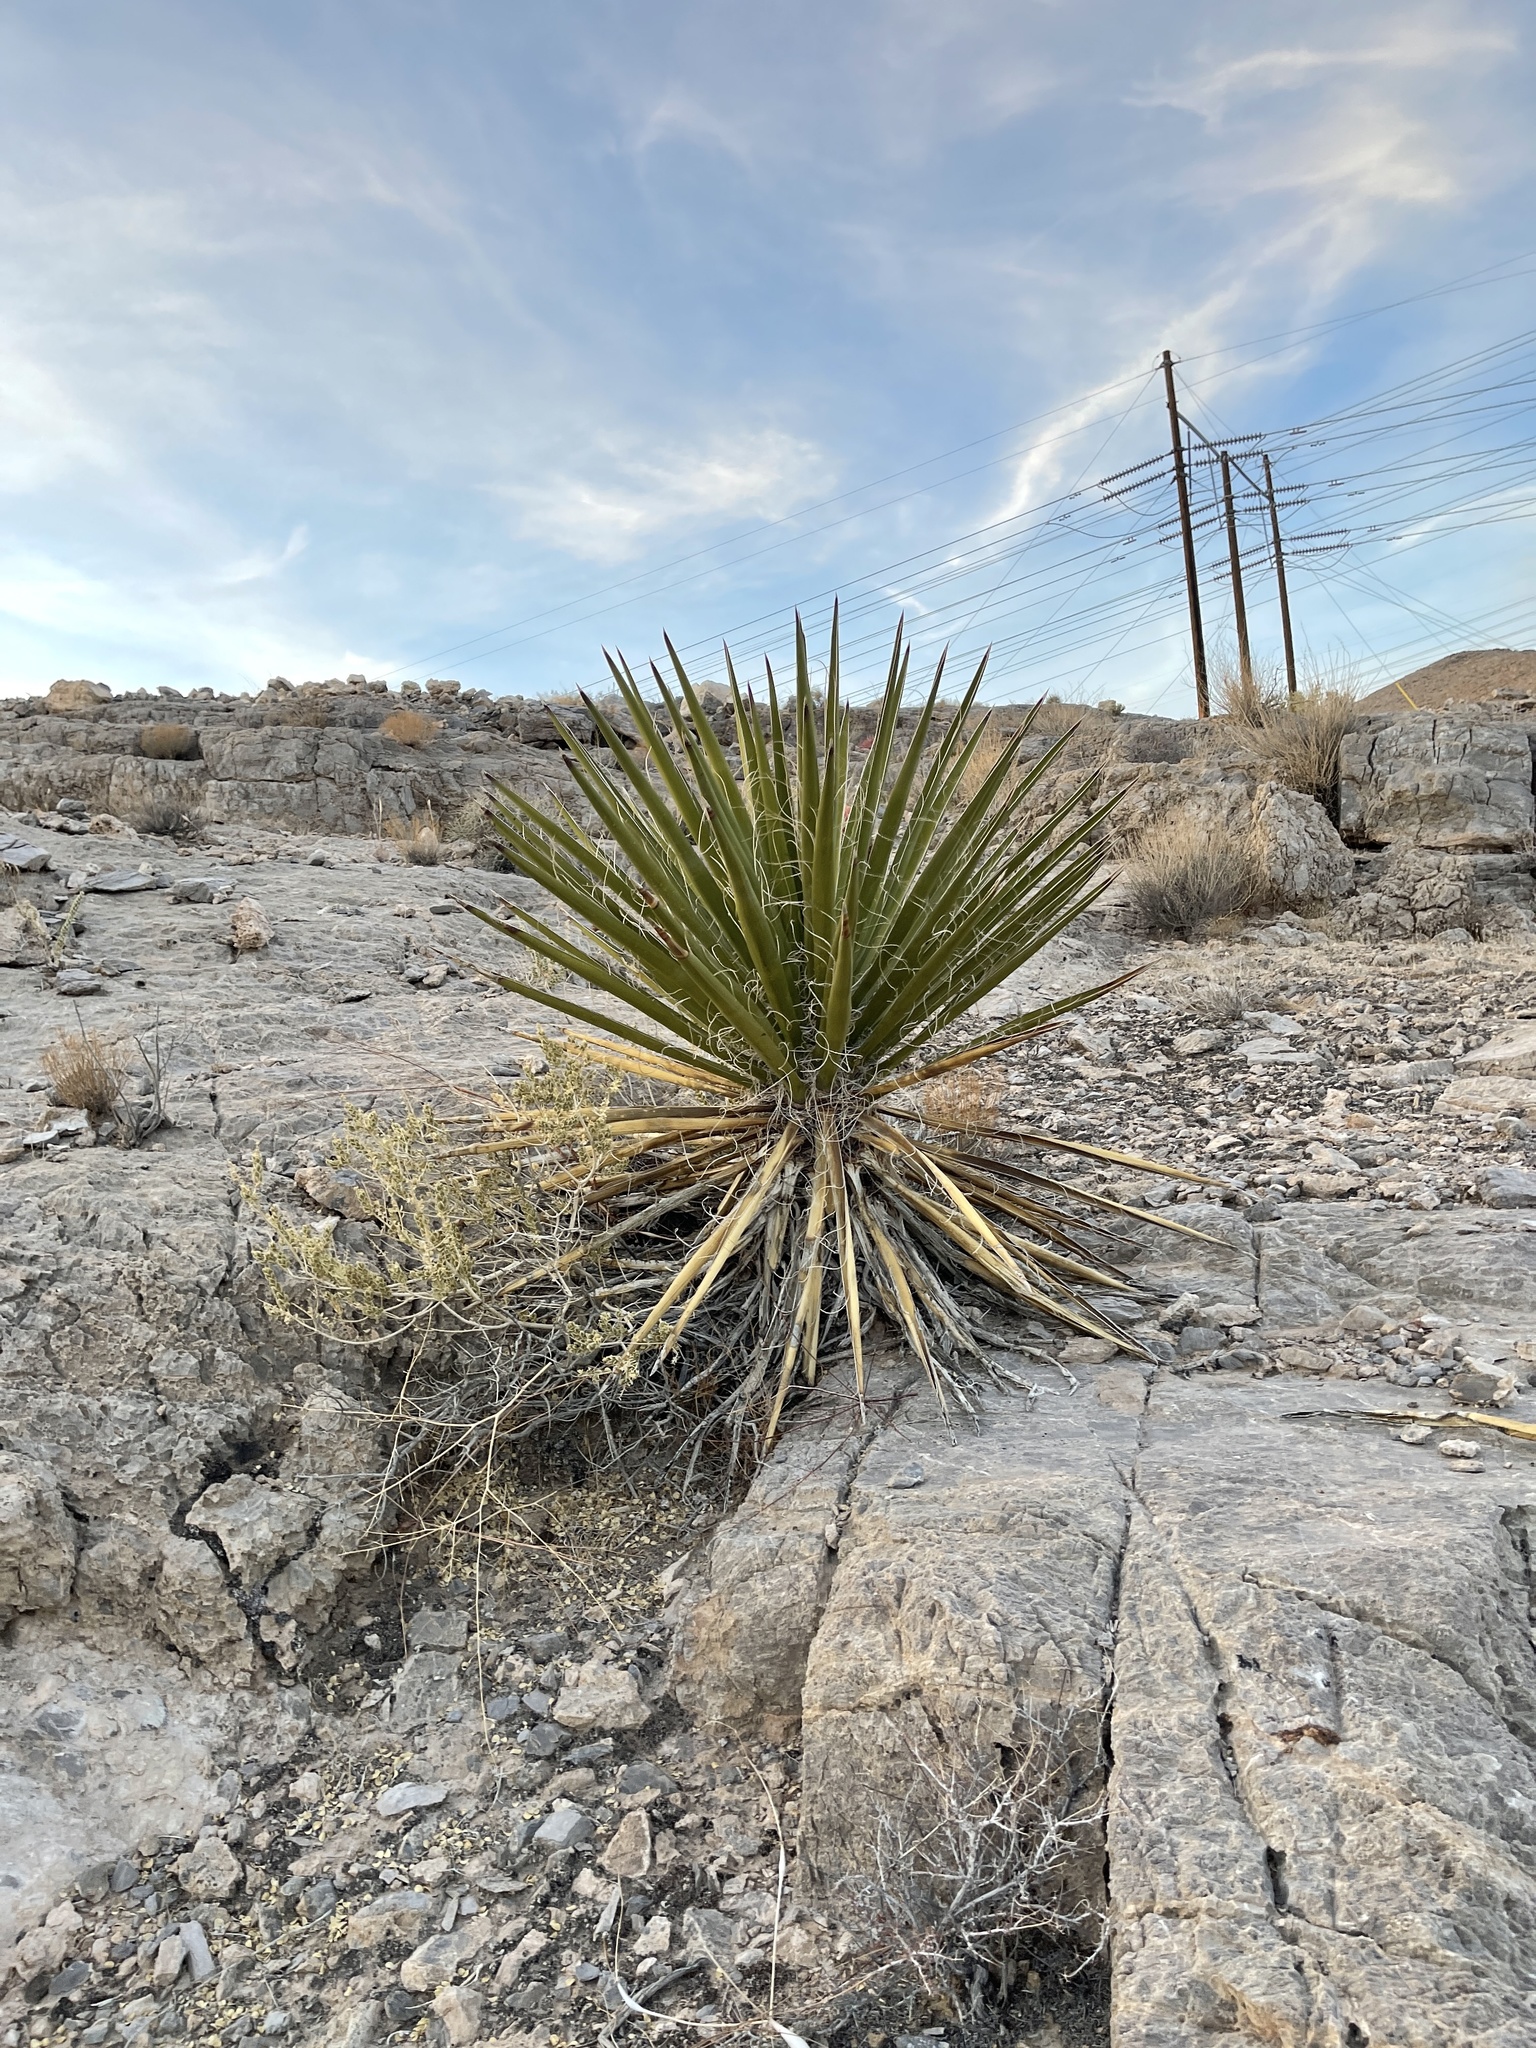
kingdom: Plantae
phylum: Tracheophyta
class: Liliopsida
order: Asparagales
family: Asparagaceae
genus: Yucca
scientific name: Yucca schidigera
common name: Mojave yucca
